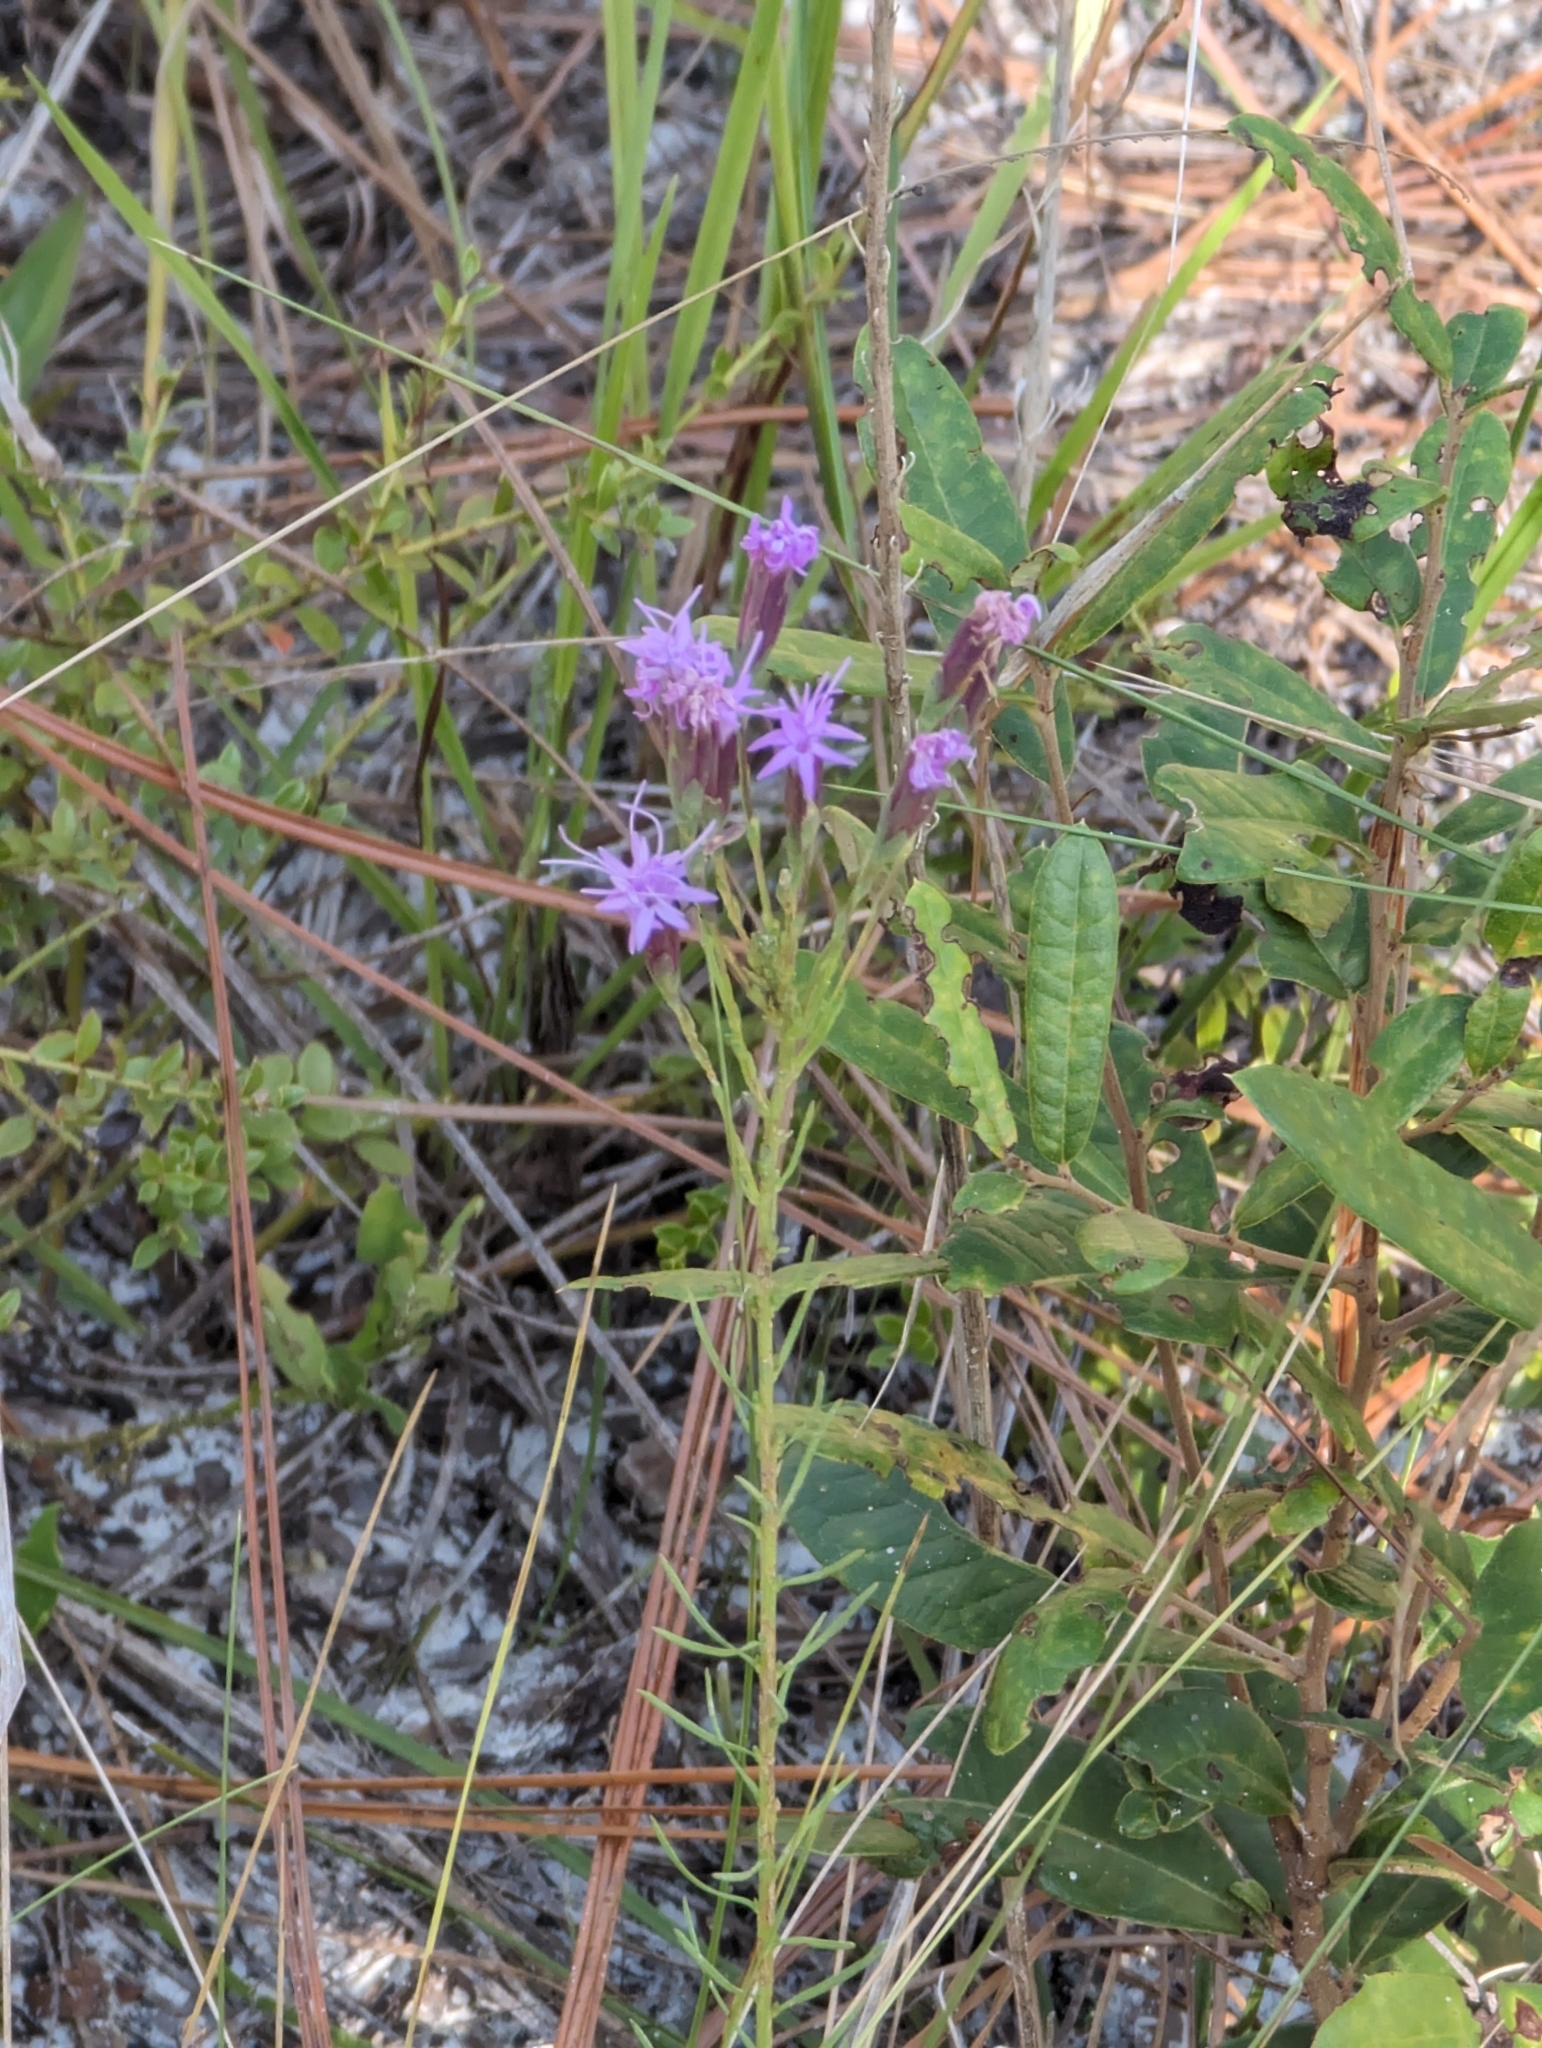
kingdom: Plantae
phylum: Tracheophyta
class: Magnoliopsida
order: Asterales
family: Asteraceae
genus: Liatris
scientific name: Liatris pauciflora
